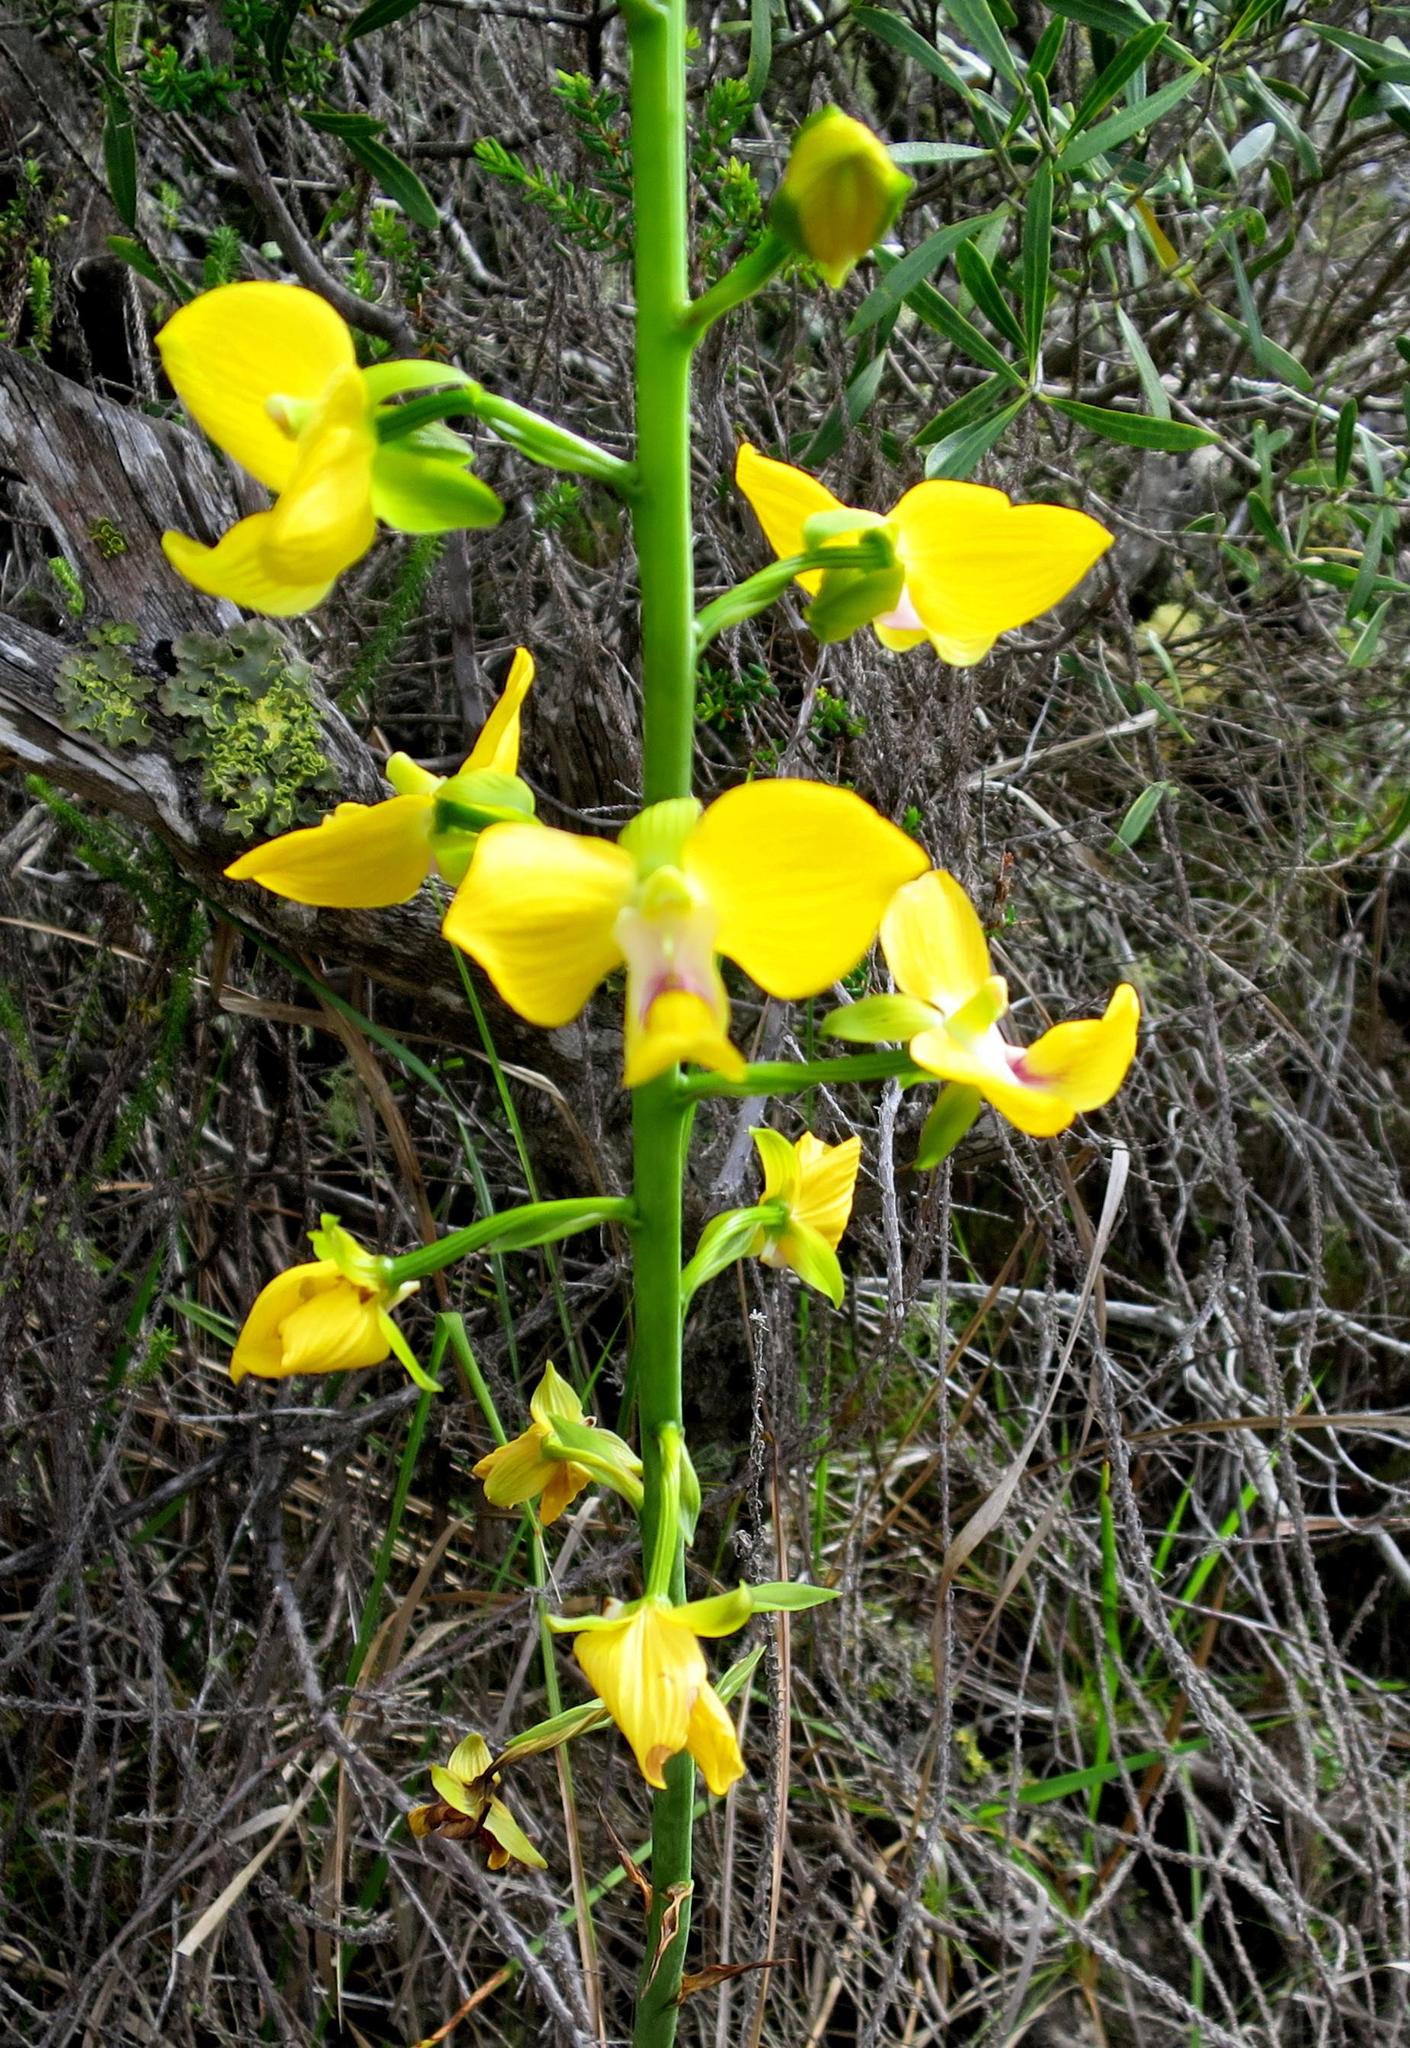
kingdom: Plantae
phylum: Tracheophyta
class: Liliopsida
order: Asparagales
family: Orchidaceae
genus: Eulophia
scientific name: Eulophia speciosa
